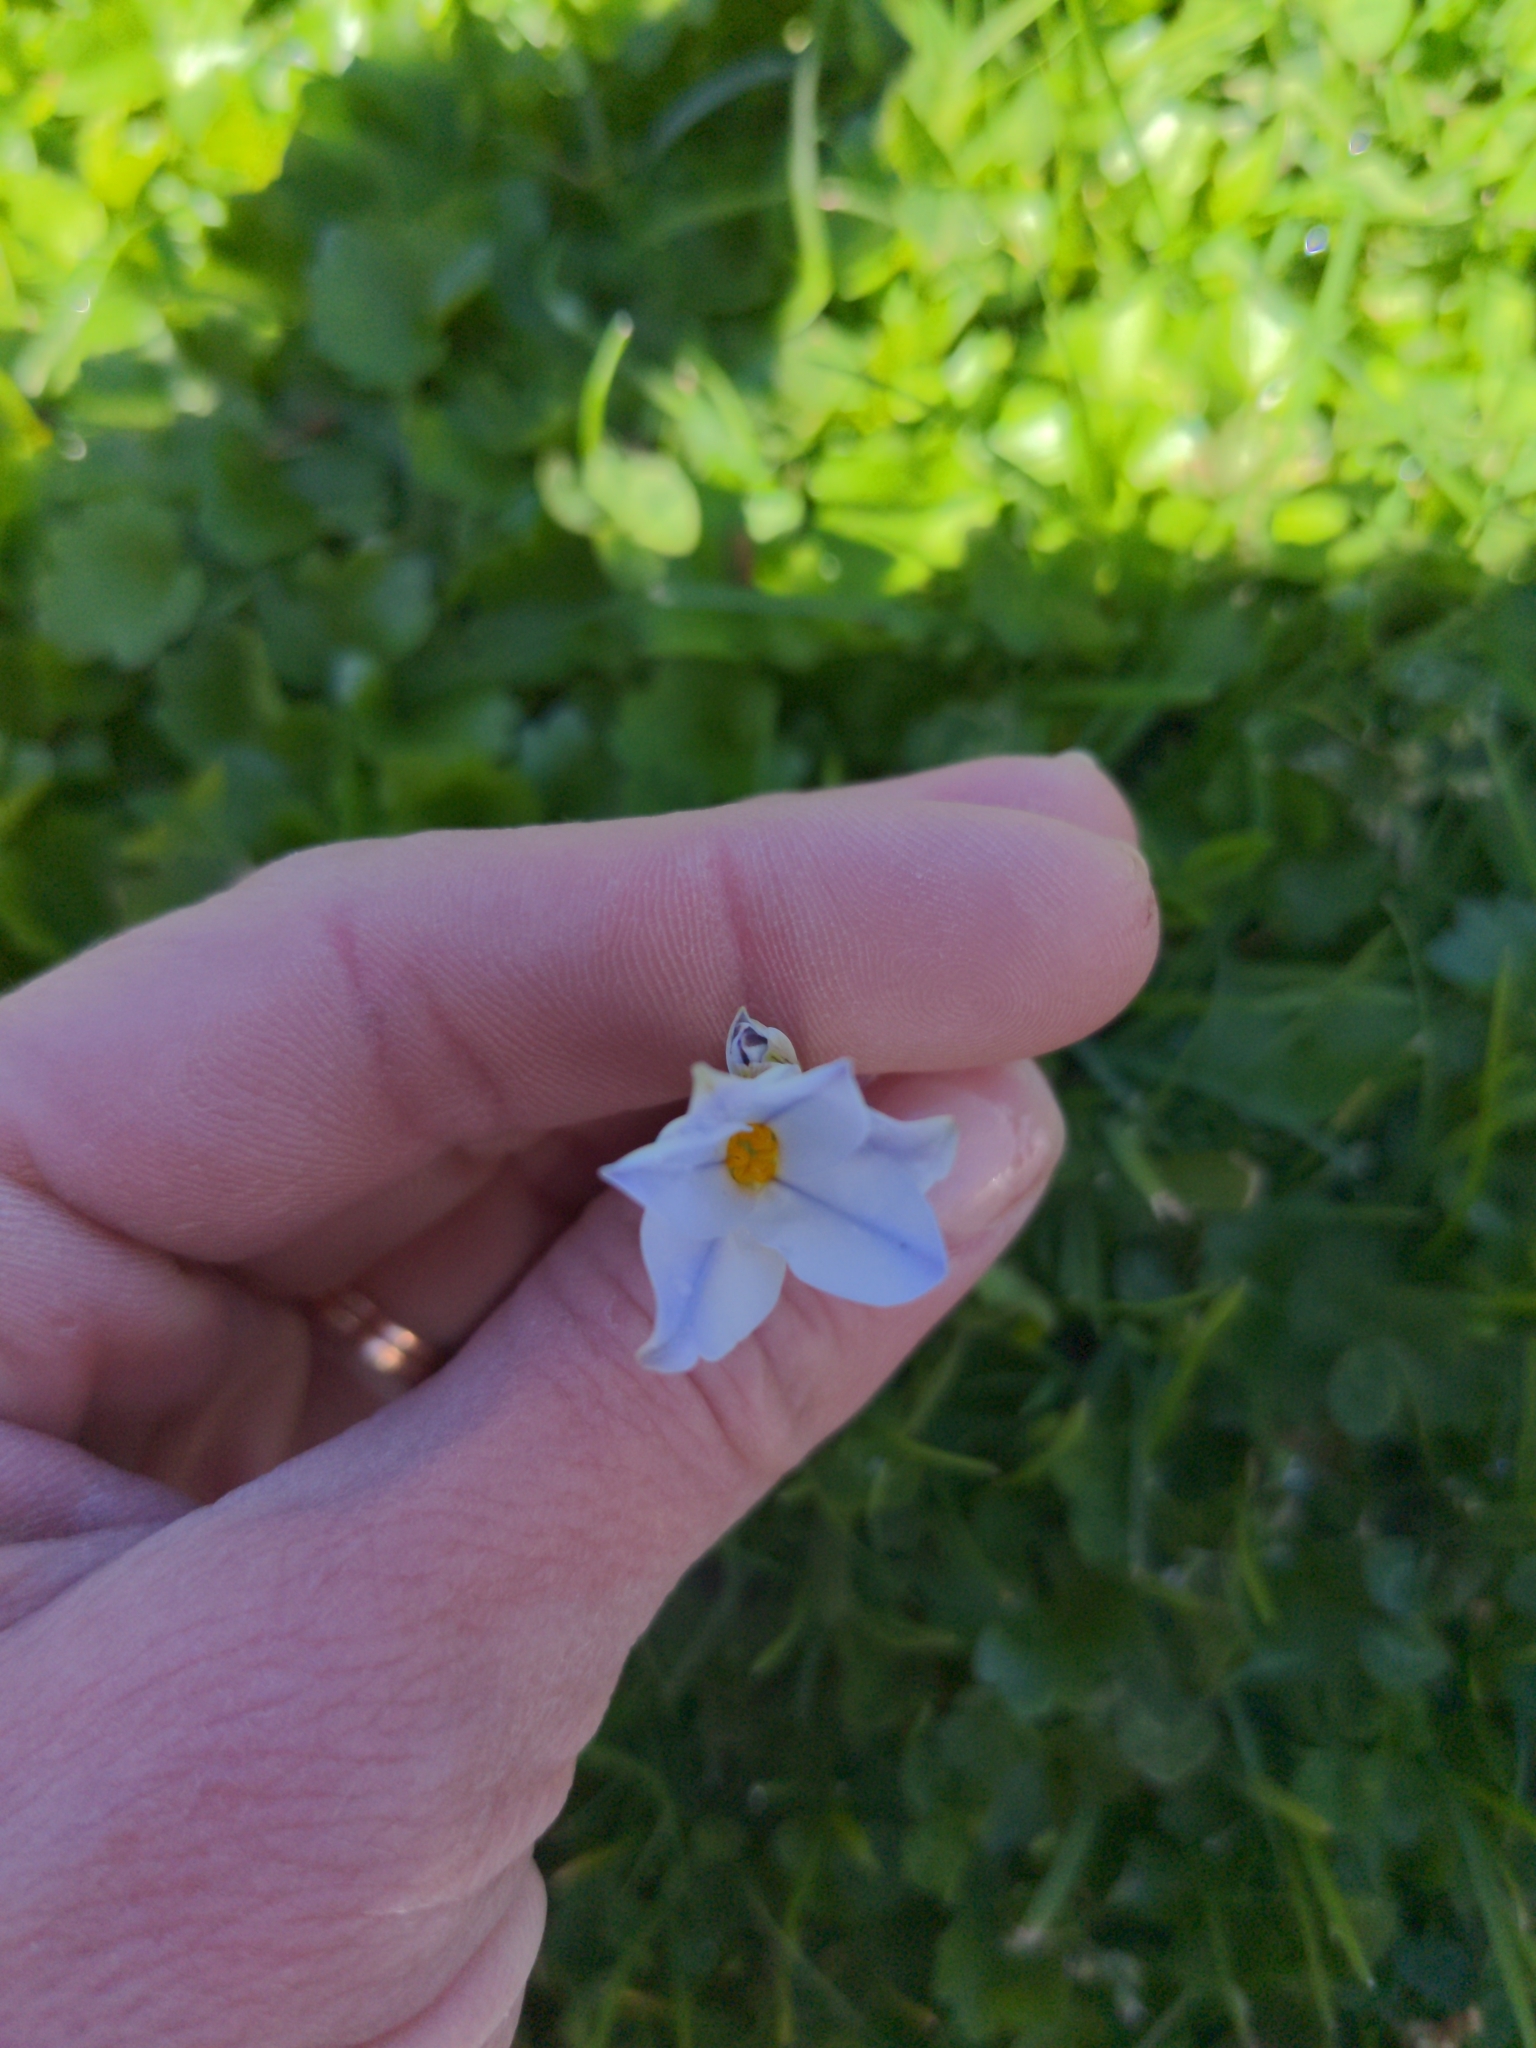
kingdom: Plantae
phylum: Tracheophyta
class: Liliopsida
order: Asparagales
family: Amaryllidaceae
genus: Ipheion
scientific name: Ipheion uniflorum
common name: Spring starflower
